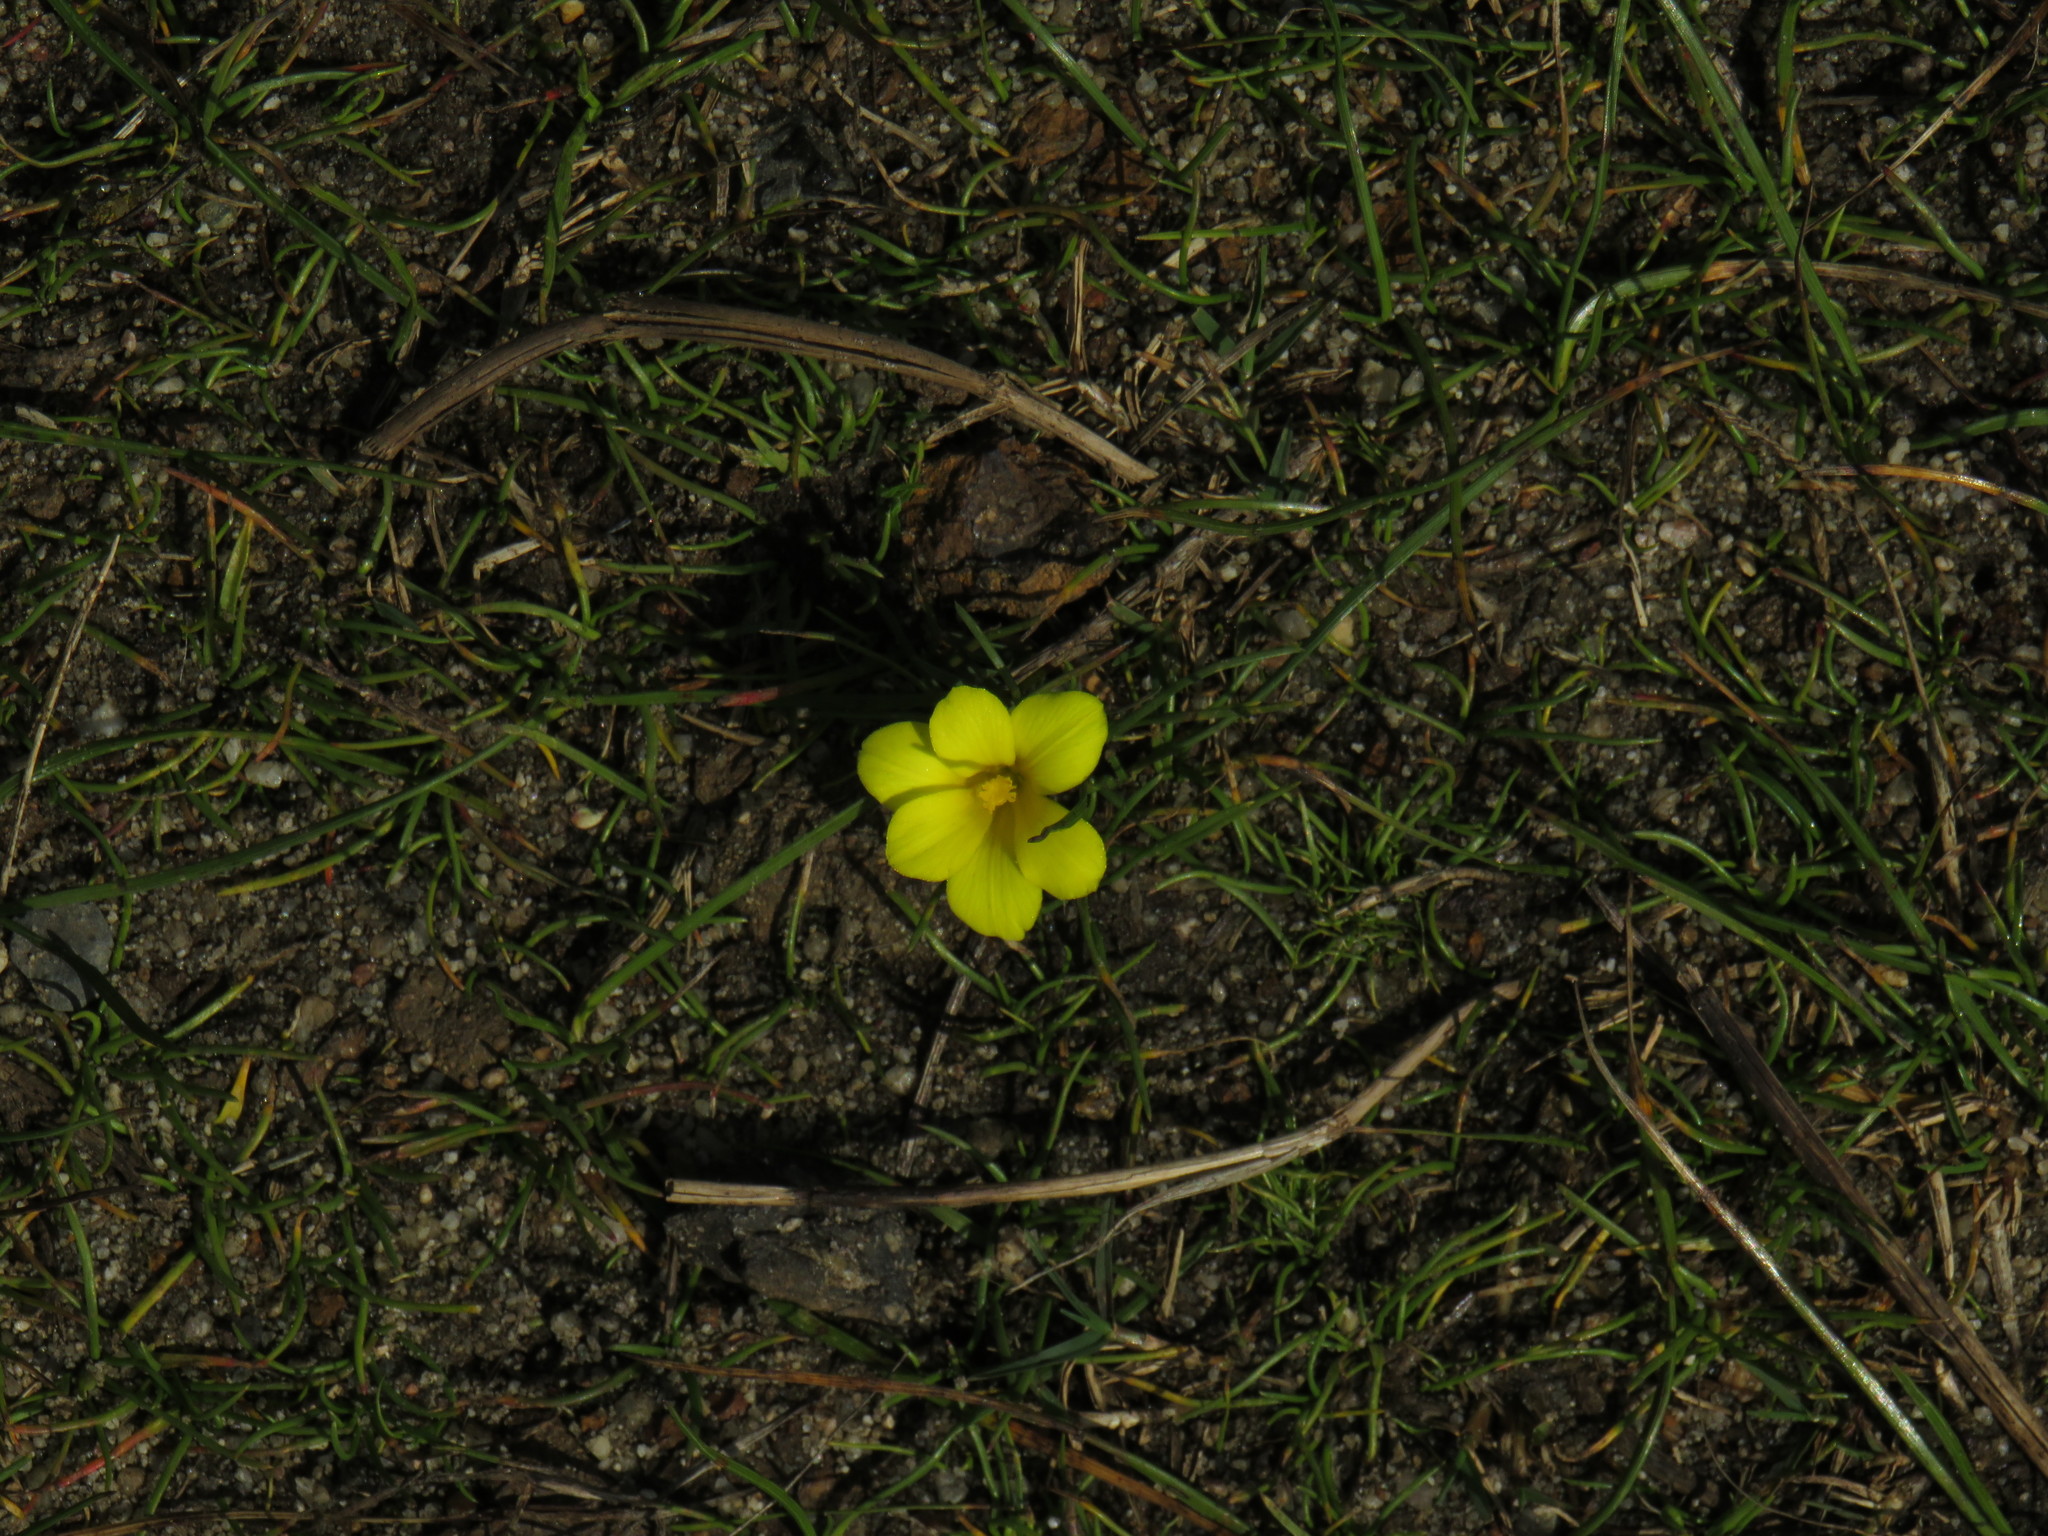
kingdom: Plantae
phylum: Tracheophyta
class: Liliopsida
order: Asparagales
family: Iridaceae
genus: Moraea
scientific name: Moraea fugacissima
